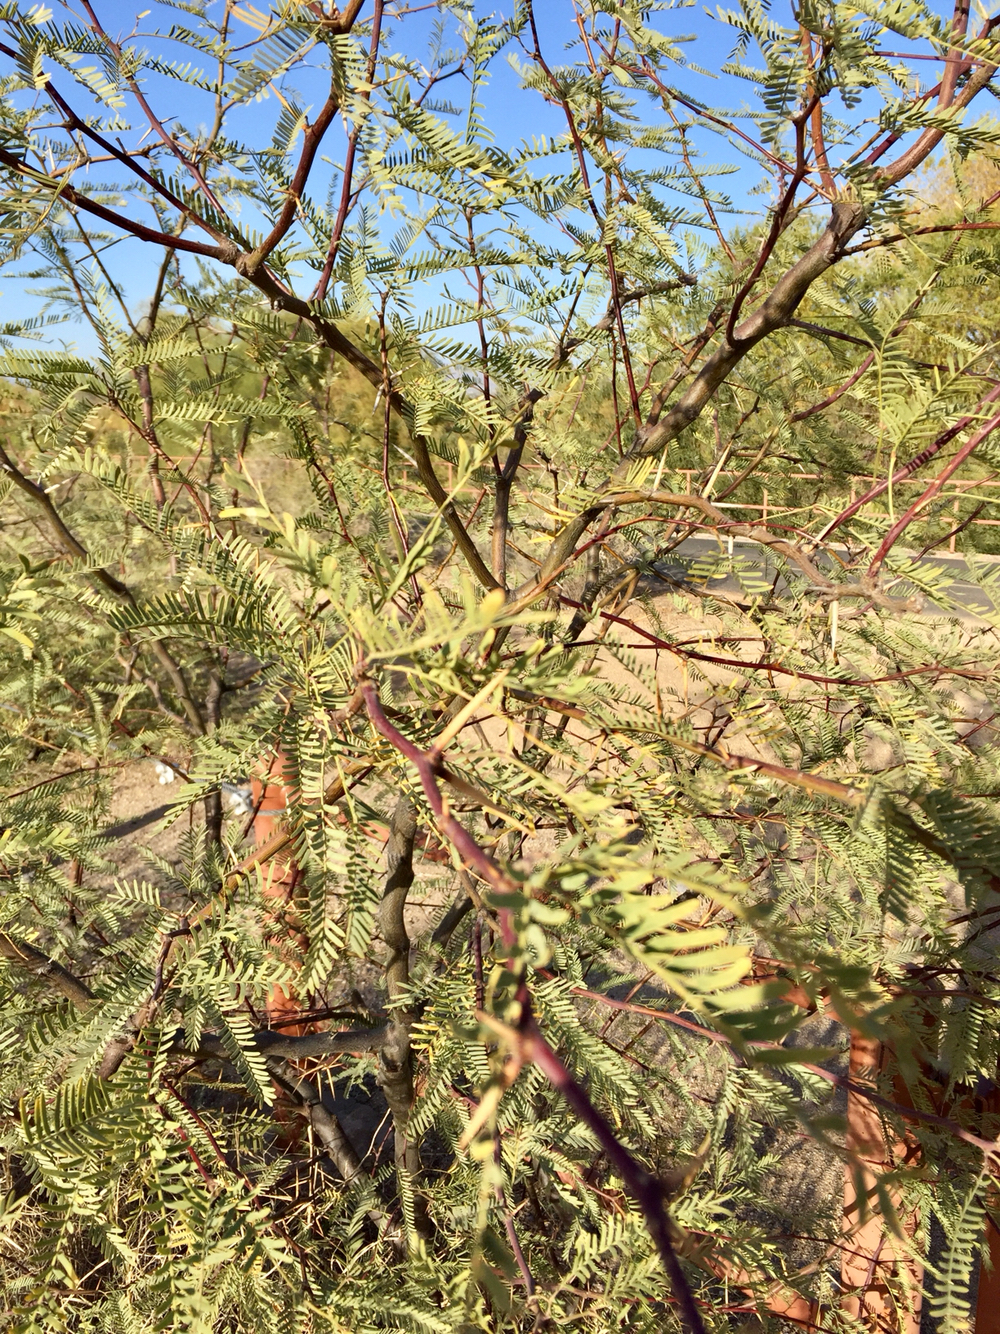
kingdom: Plantae
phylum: Tracheophyta
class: Magnoliopsida
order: Fabales
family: Fabaceae
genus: Prosopis
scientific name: Prosopis glandulosa
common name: Honey mesquite
